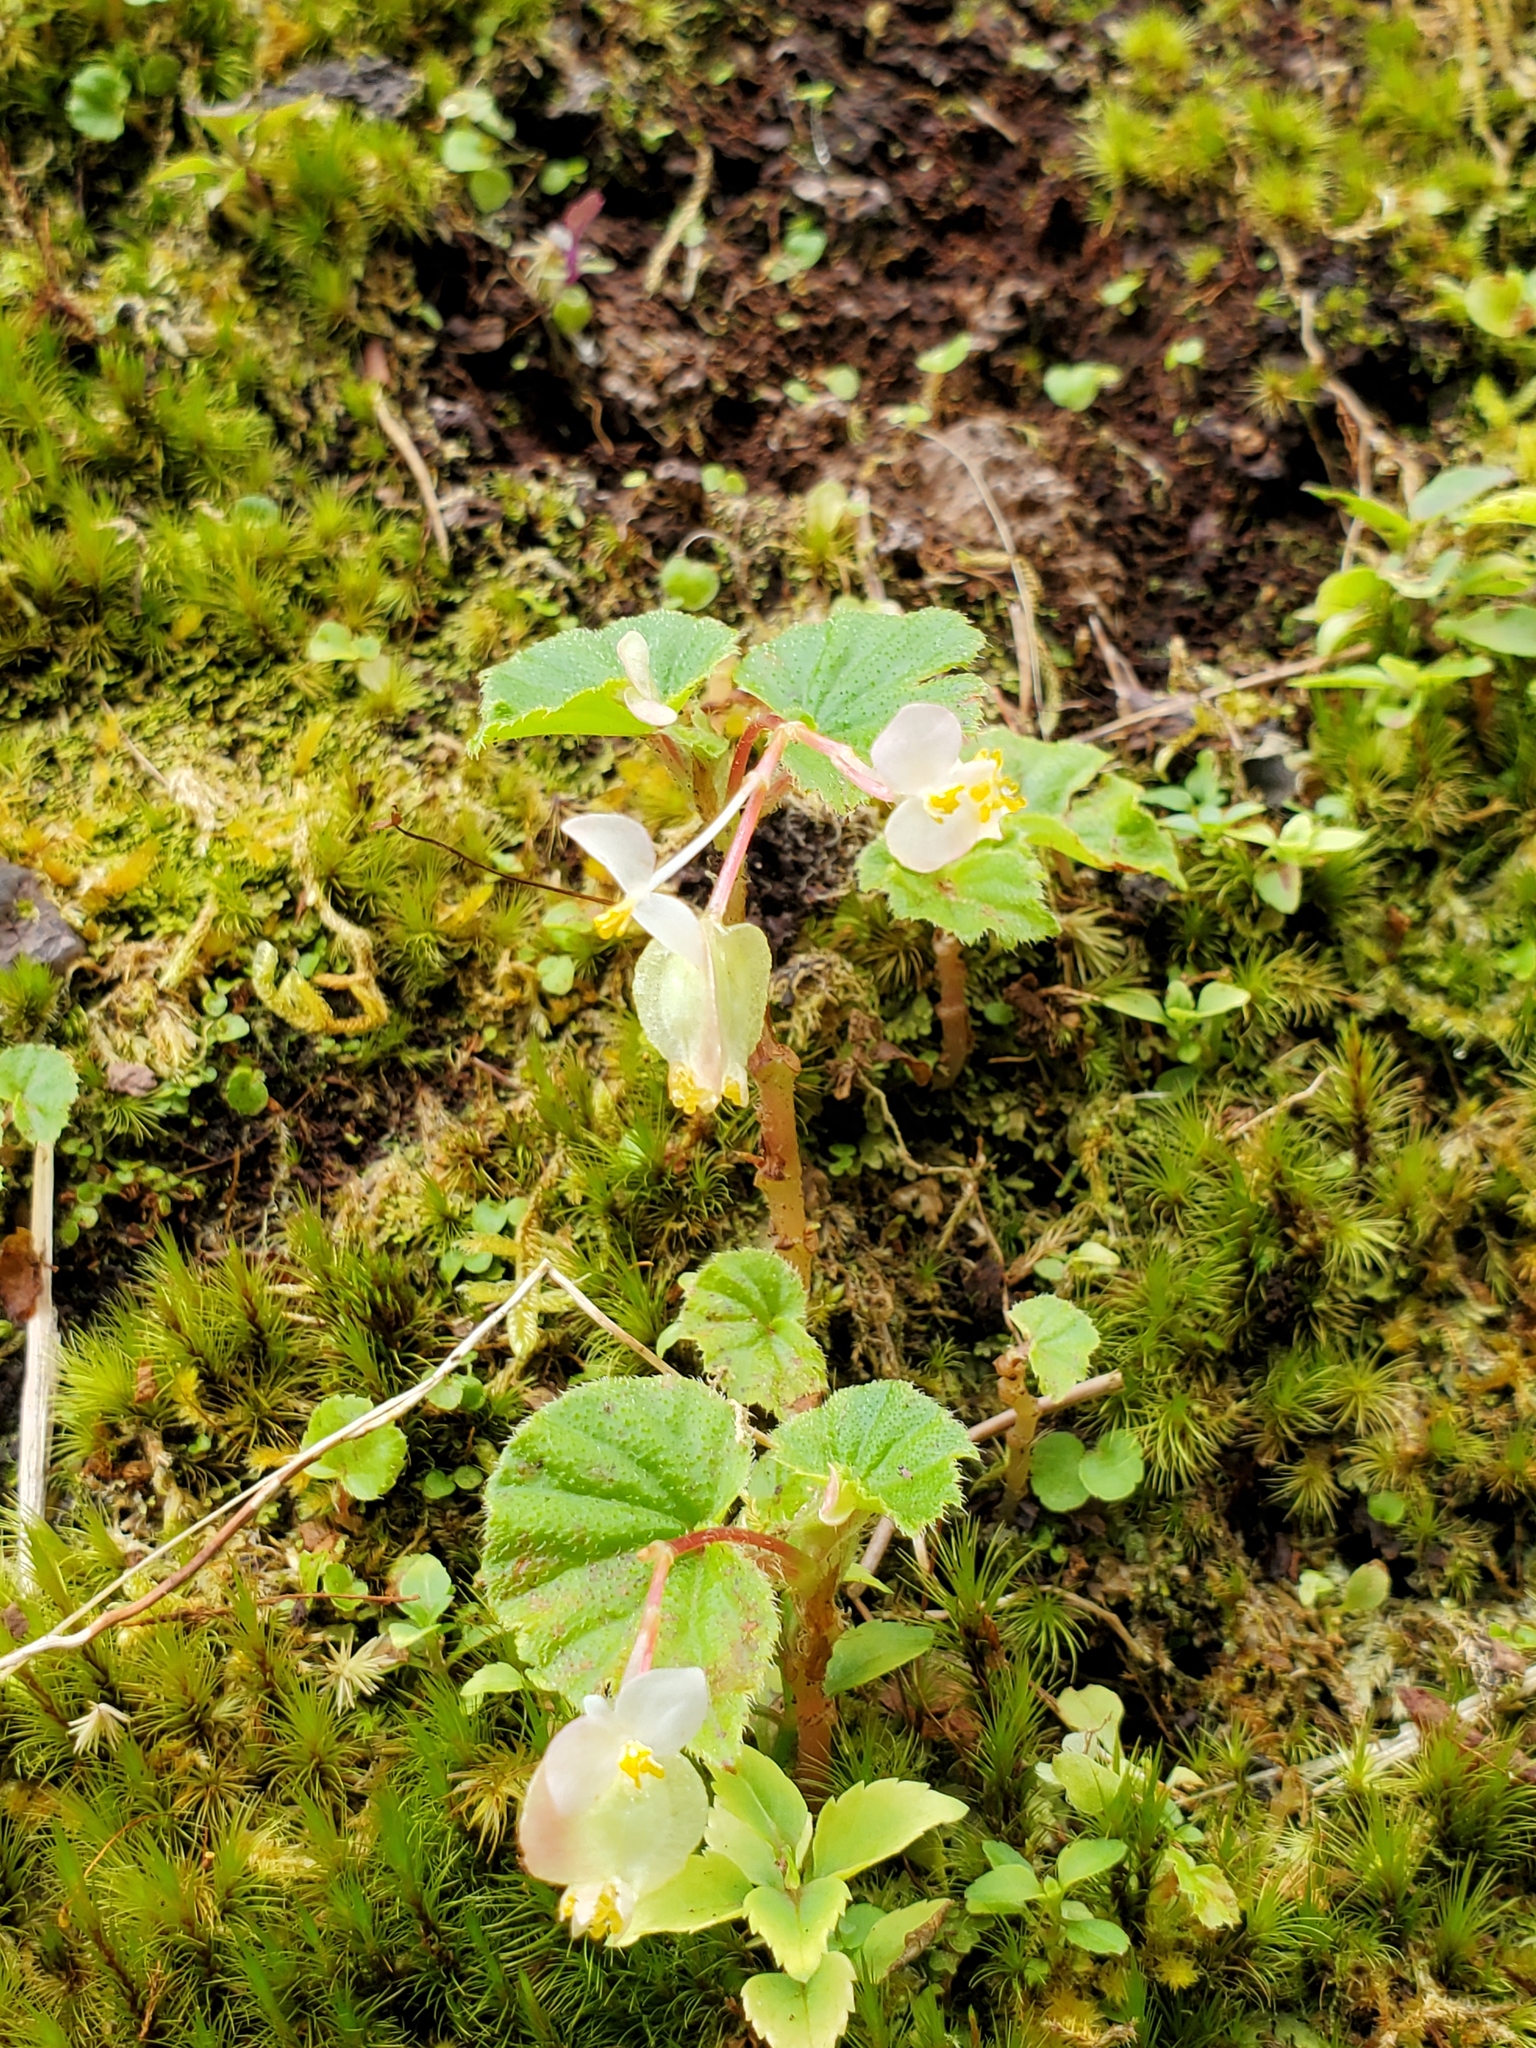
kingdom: Plantae
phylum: Tracheophyta
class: Magnoliopsida
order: Cucurbitales
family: Begoniaceae
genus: Begonia
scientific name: Begonia hirtella
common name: Brazilian begonia
